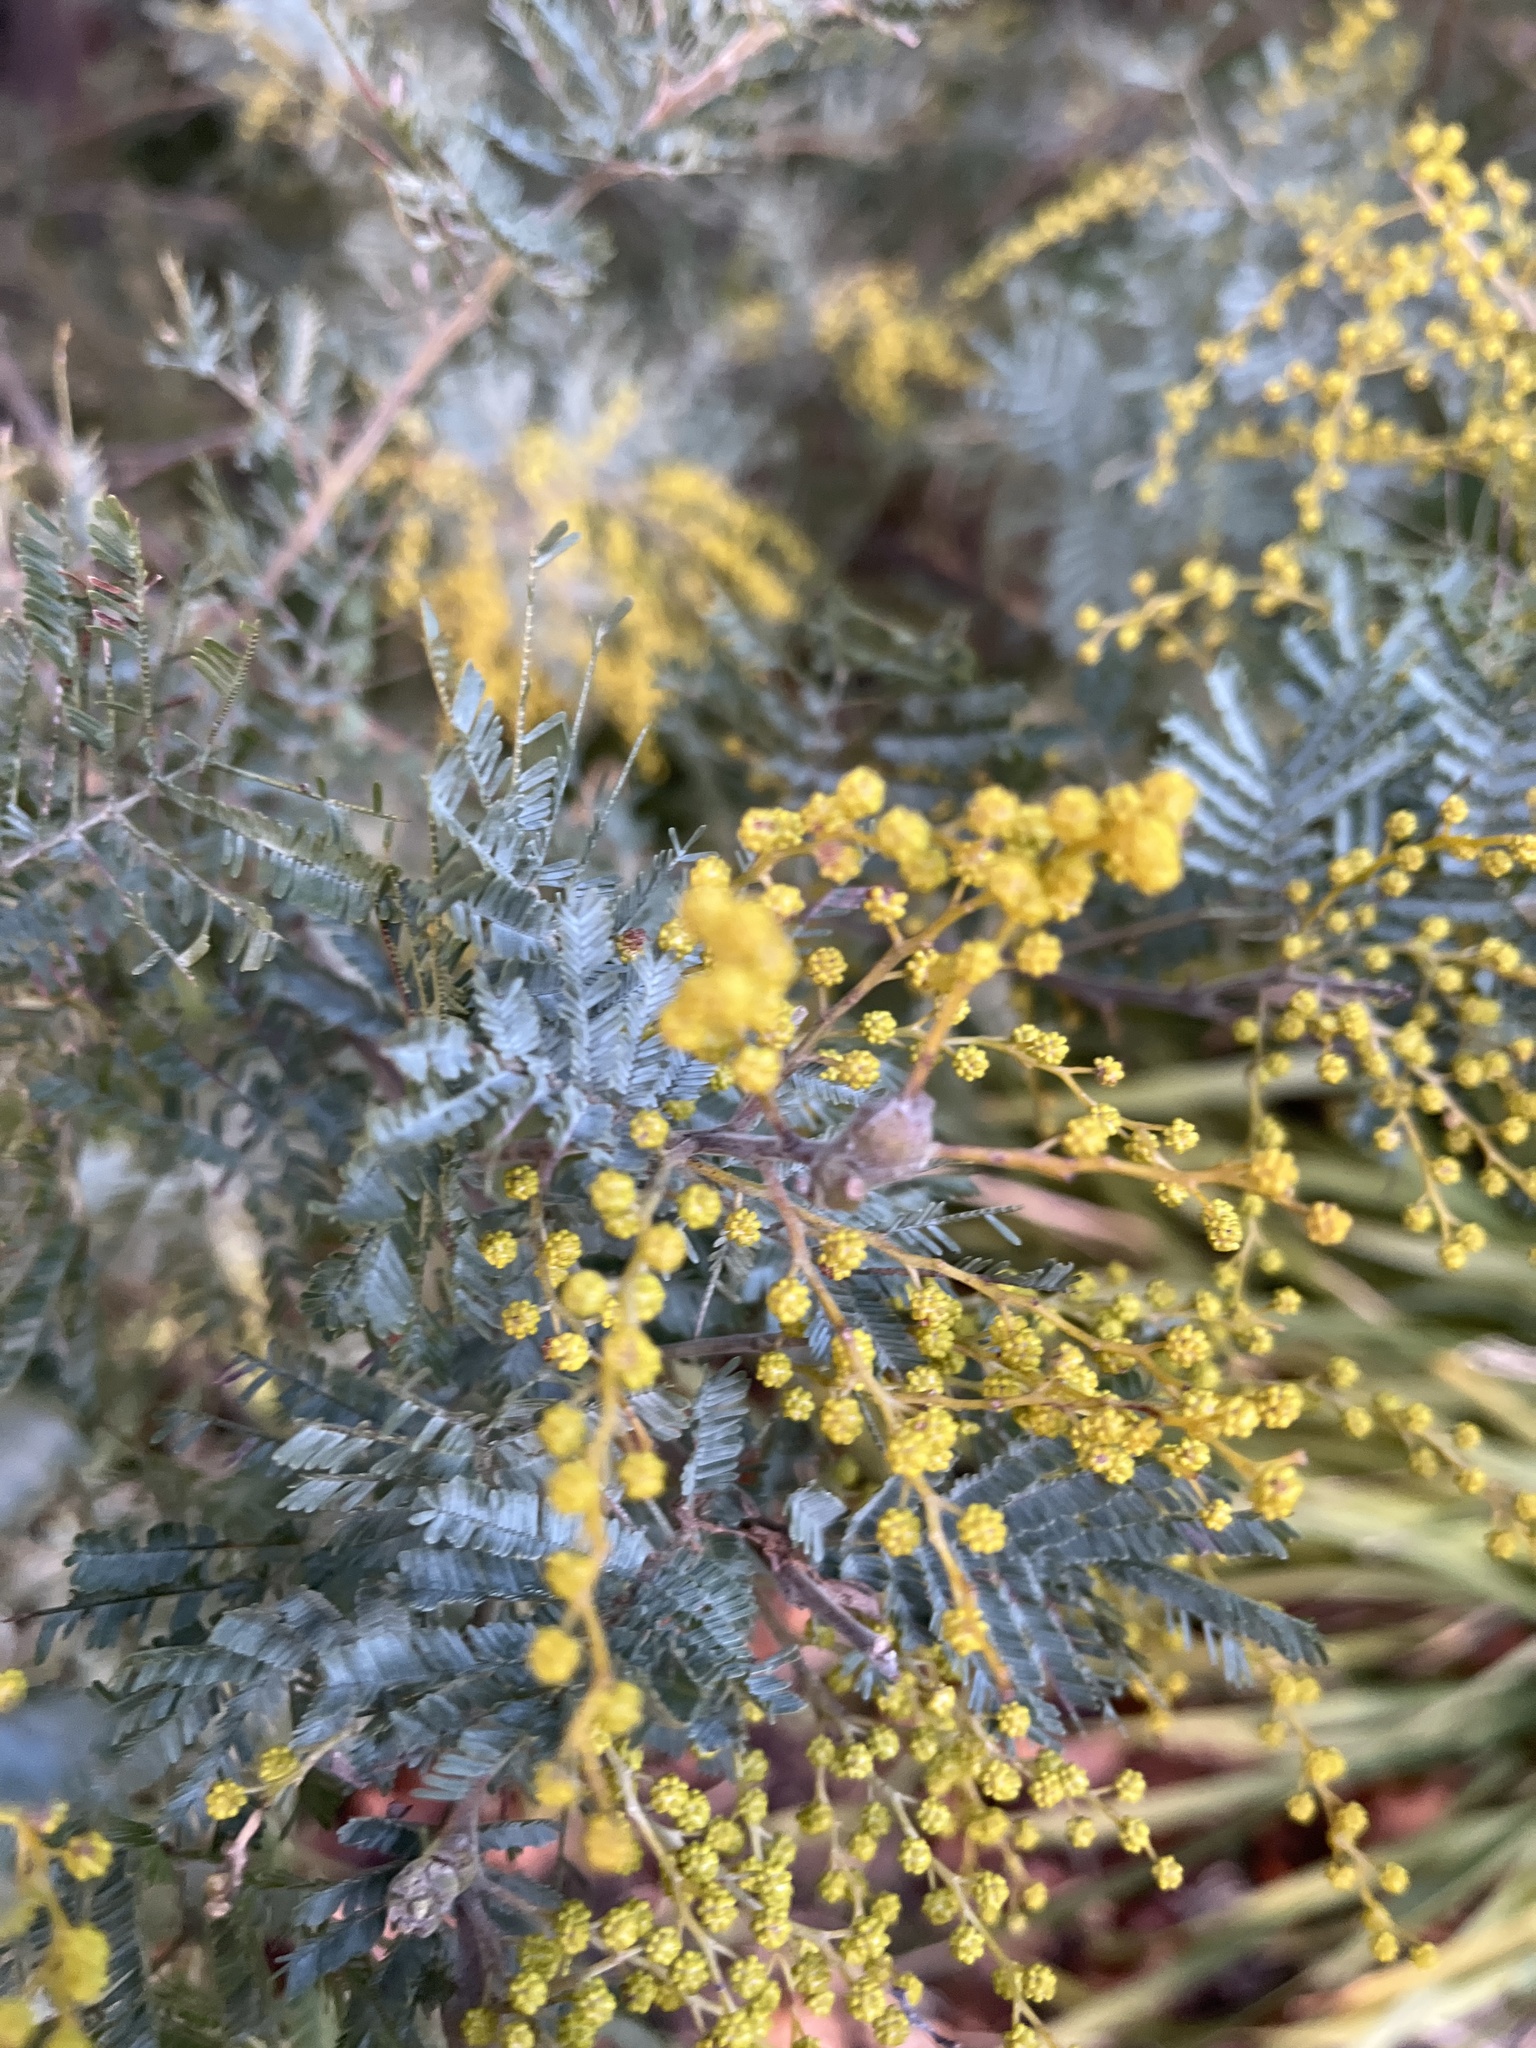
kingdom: Plantae
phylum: Tracheophyta
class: Magnoliopsida
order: Fabales
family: Fabaceae
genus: Acacia
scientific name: Acacia dealbata
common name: Silver wattle
